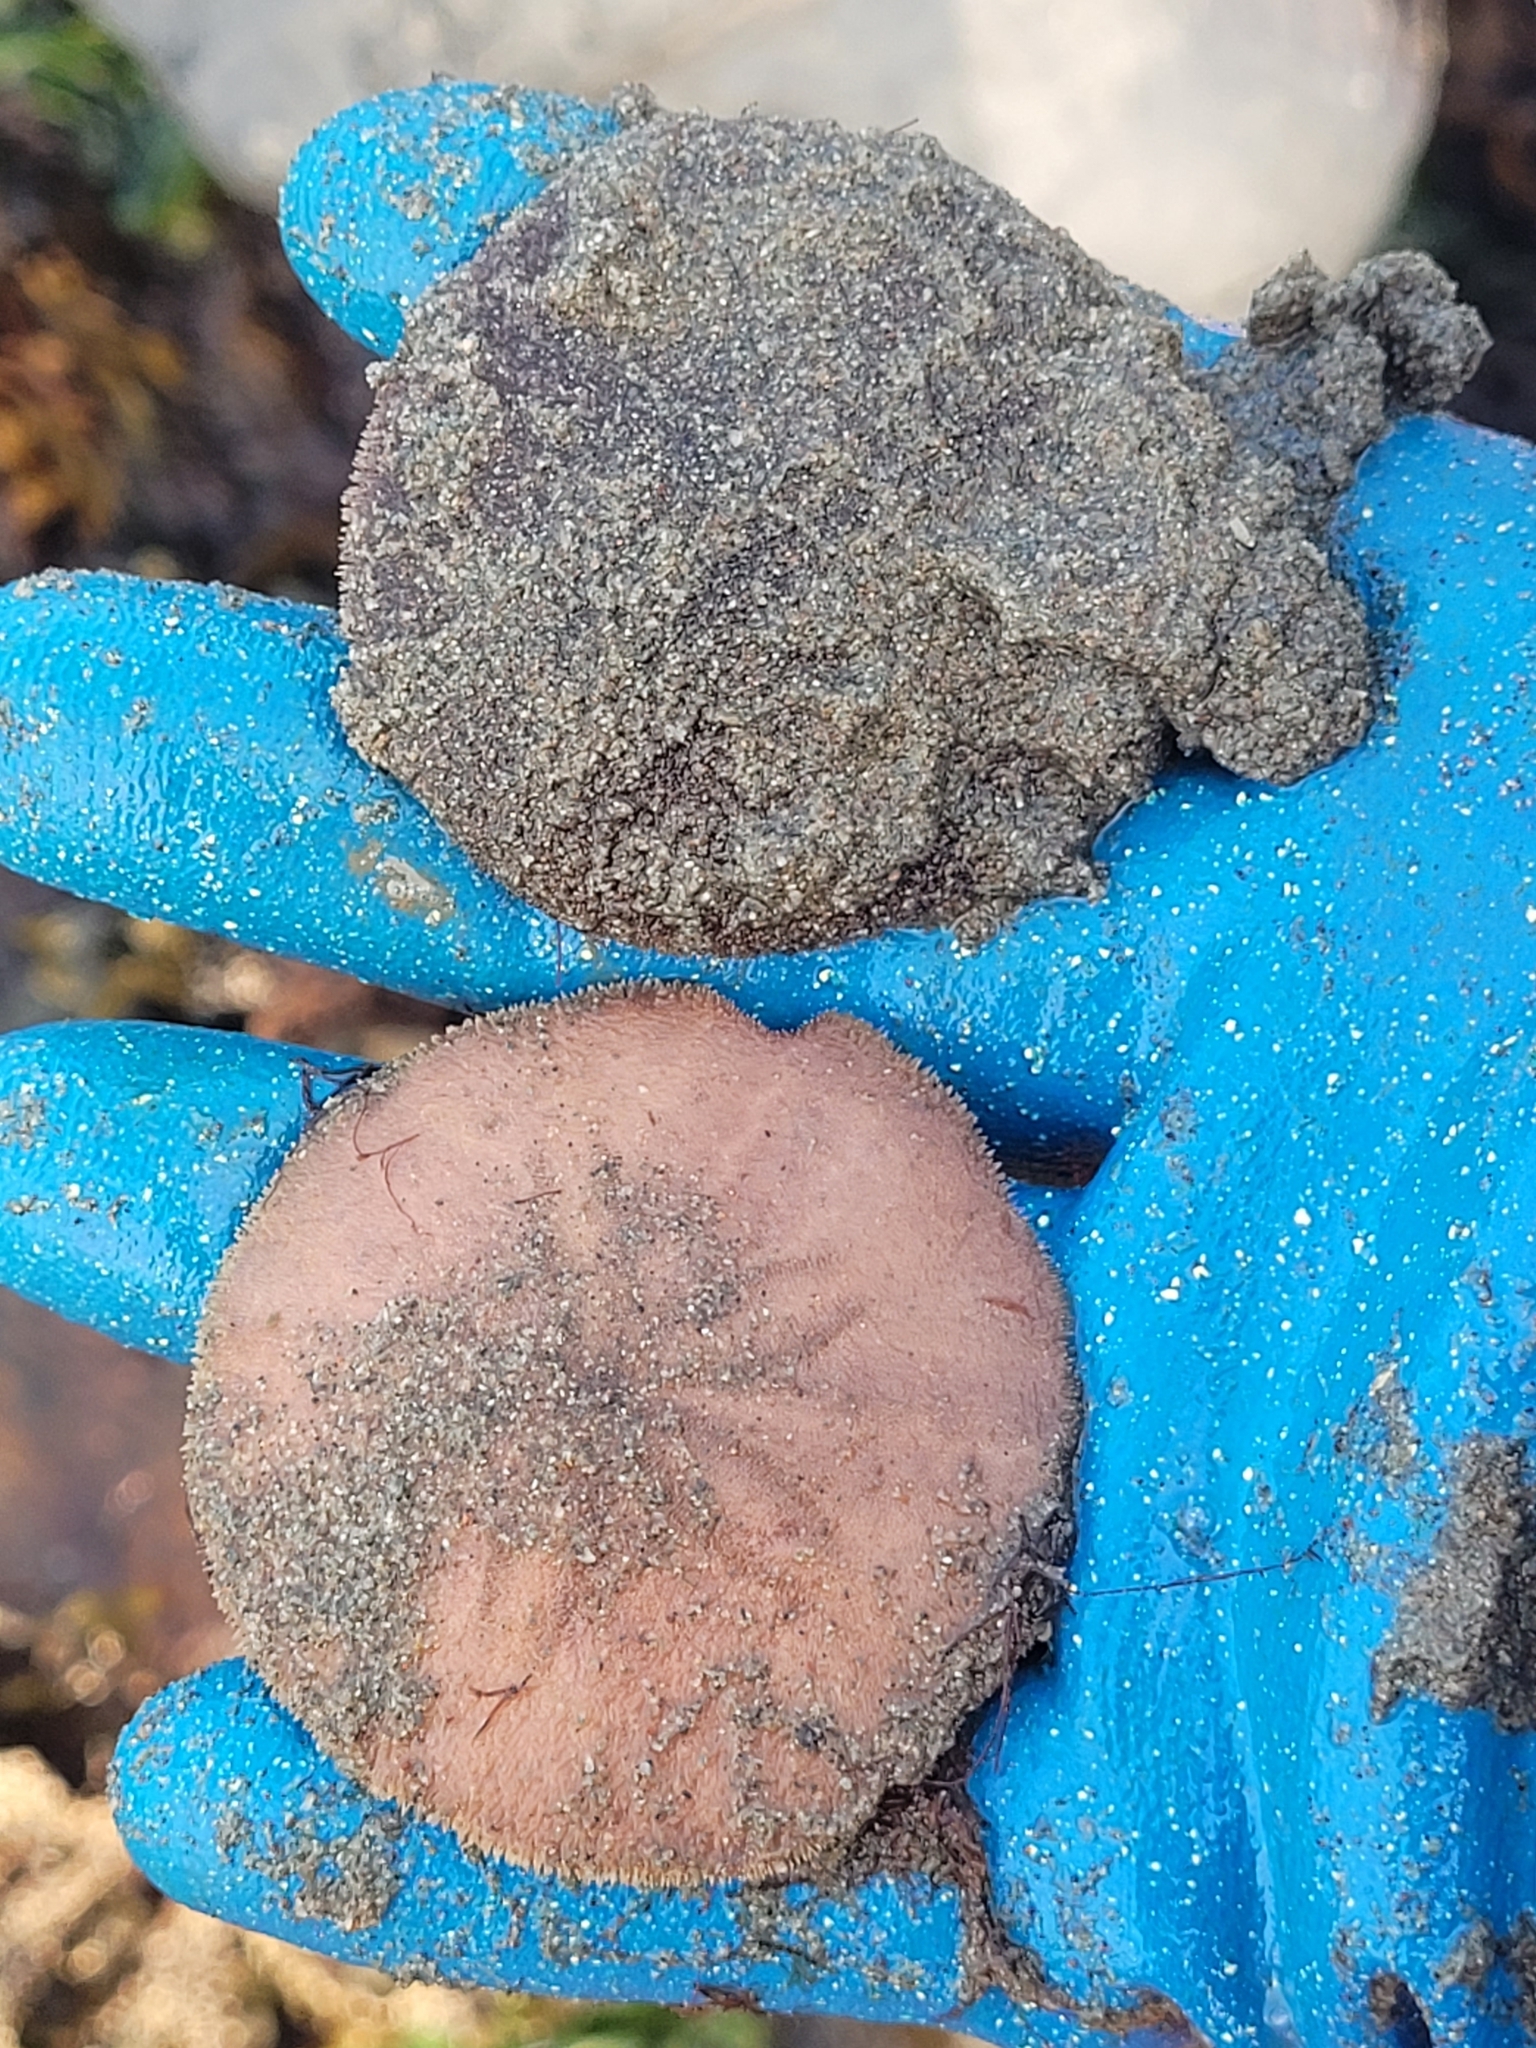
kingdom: Animalia
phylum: Echinodermata
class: Echinoidea
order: Echinolampadacea
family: Echinarachniidae
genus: Echinarachnius
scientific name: Echinarachnius parma
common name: Common sand dollar
